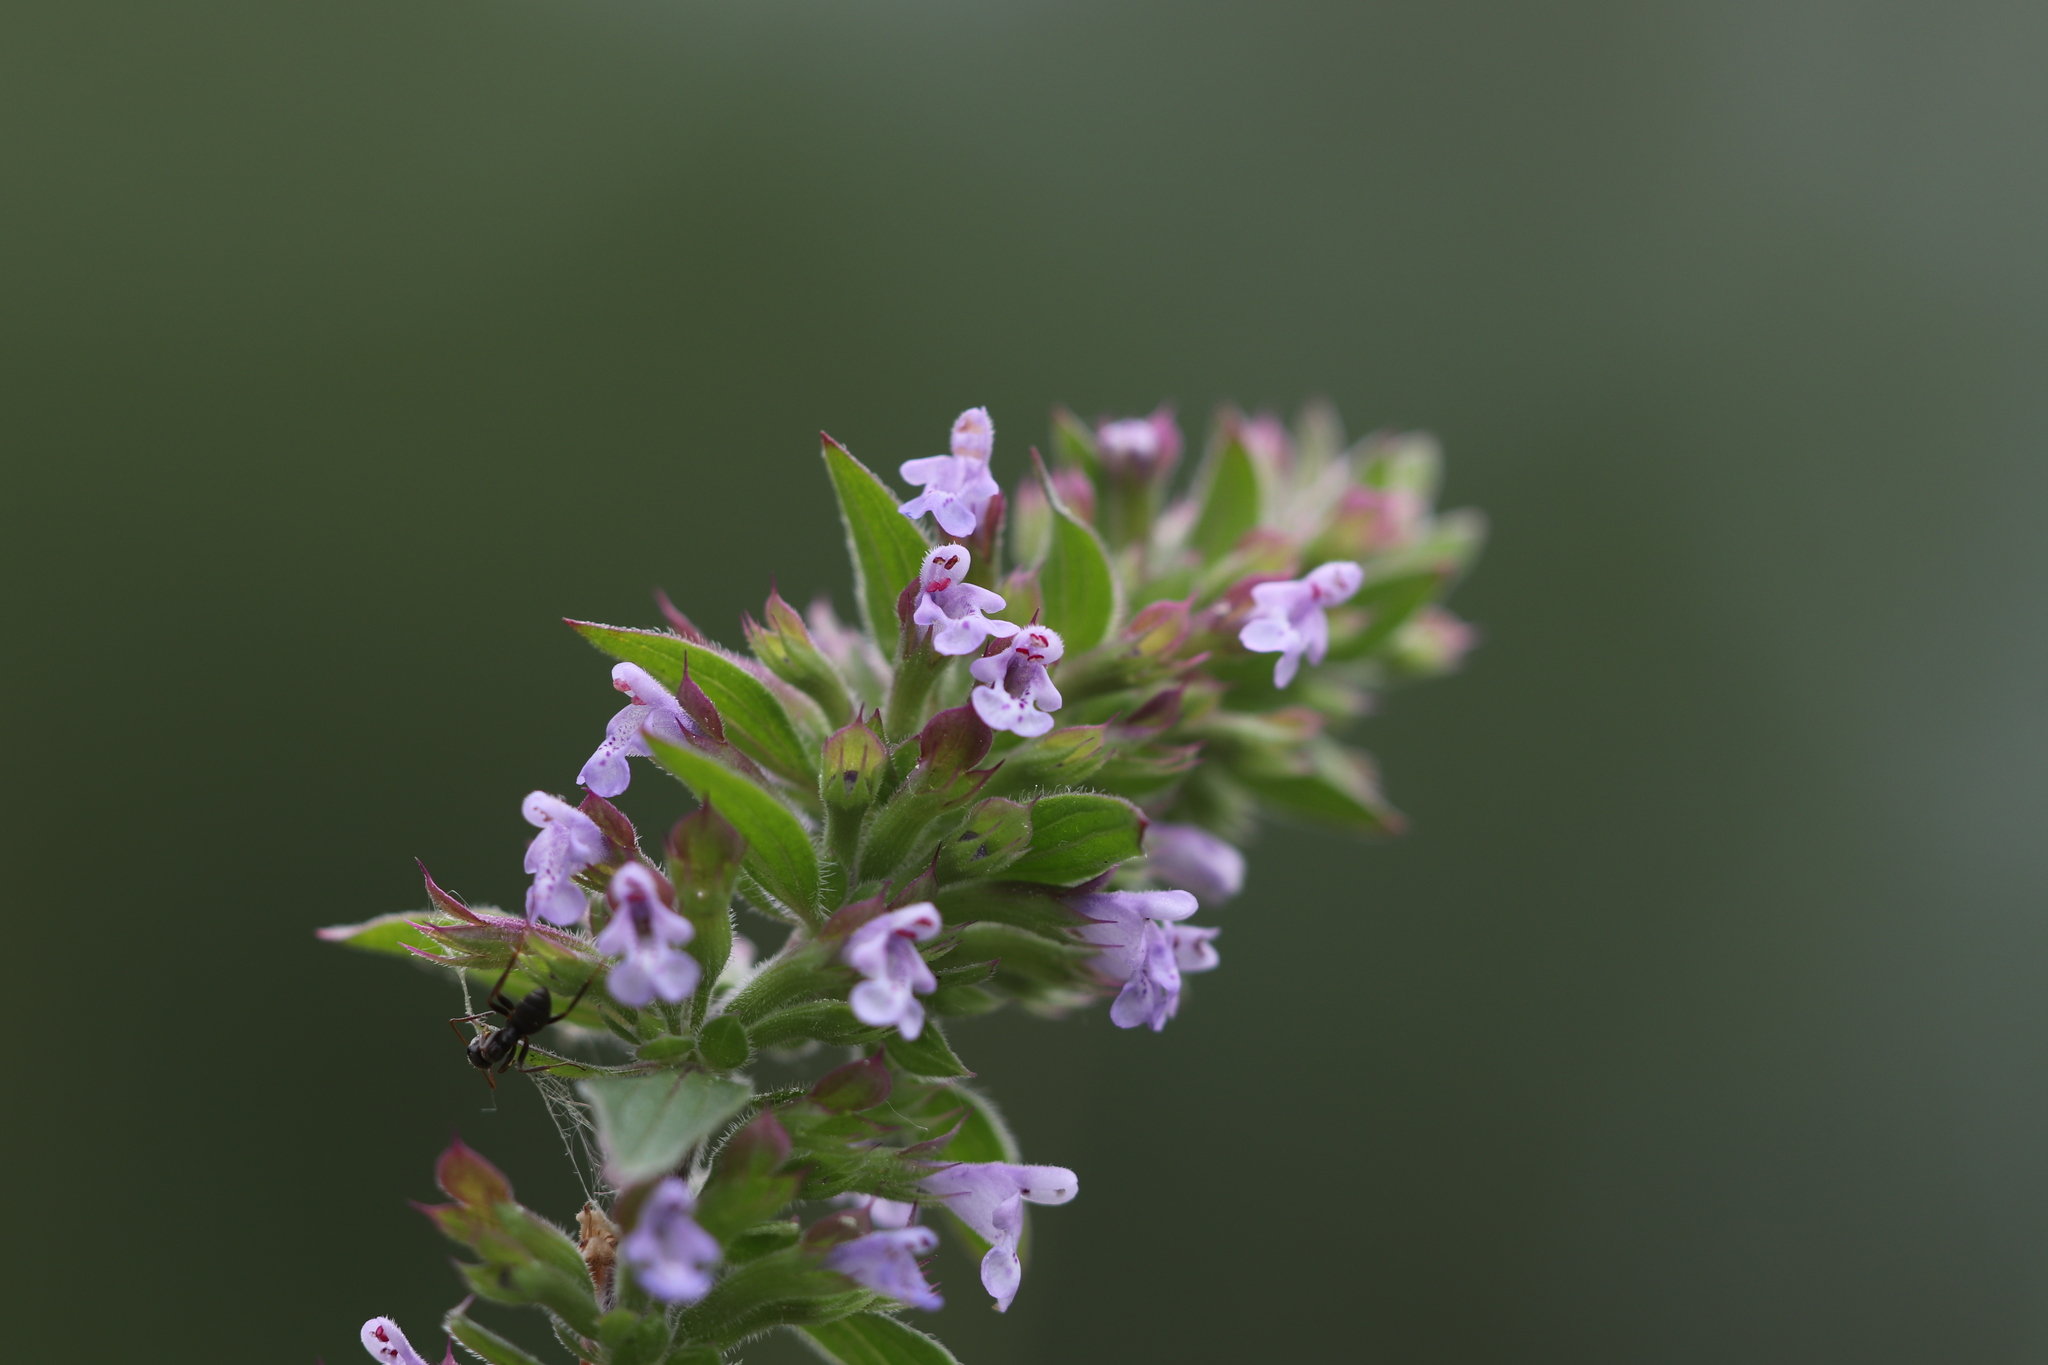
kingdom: Plantae
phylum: Tracheophyta
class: Magnoliopsida
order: Lamiales
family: Lamiaceae
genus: Dracocephalum
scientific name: Dracocephalum thymiflorum
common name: Thymeleaf dragonhead
